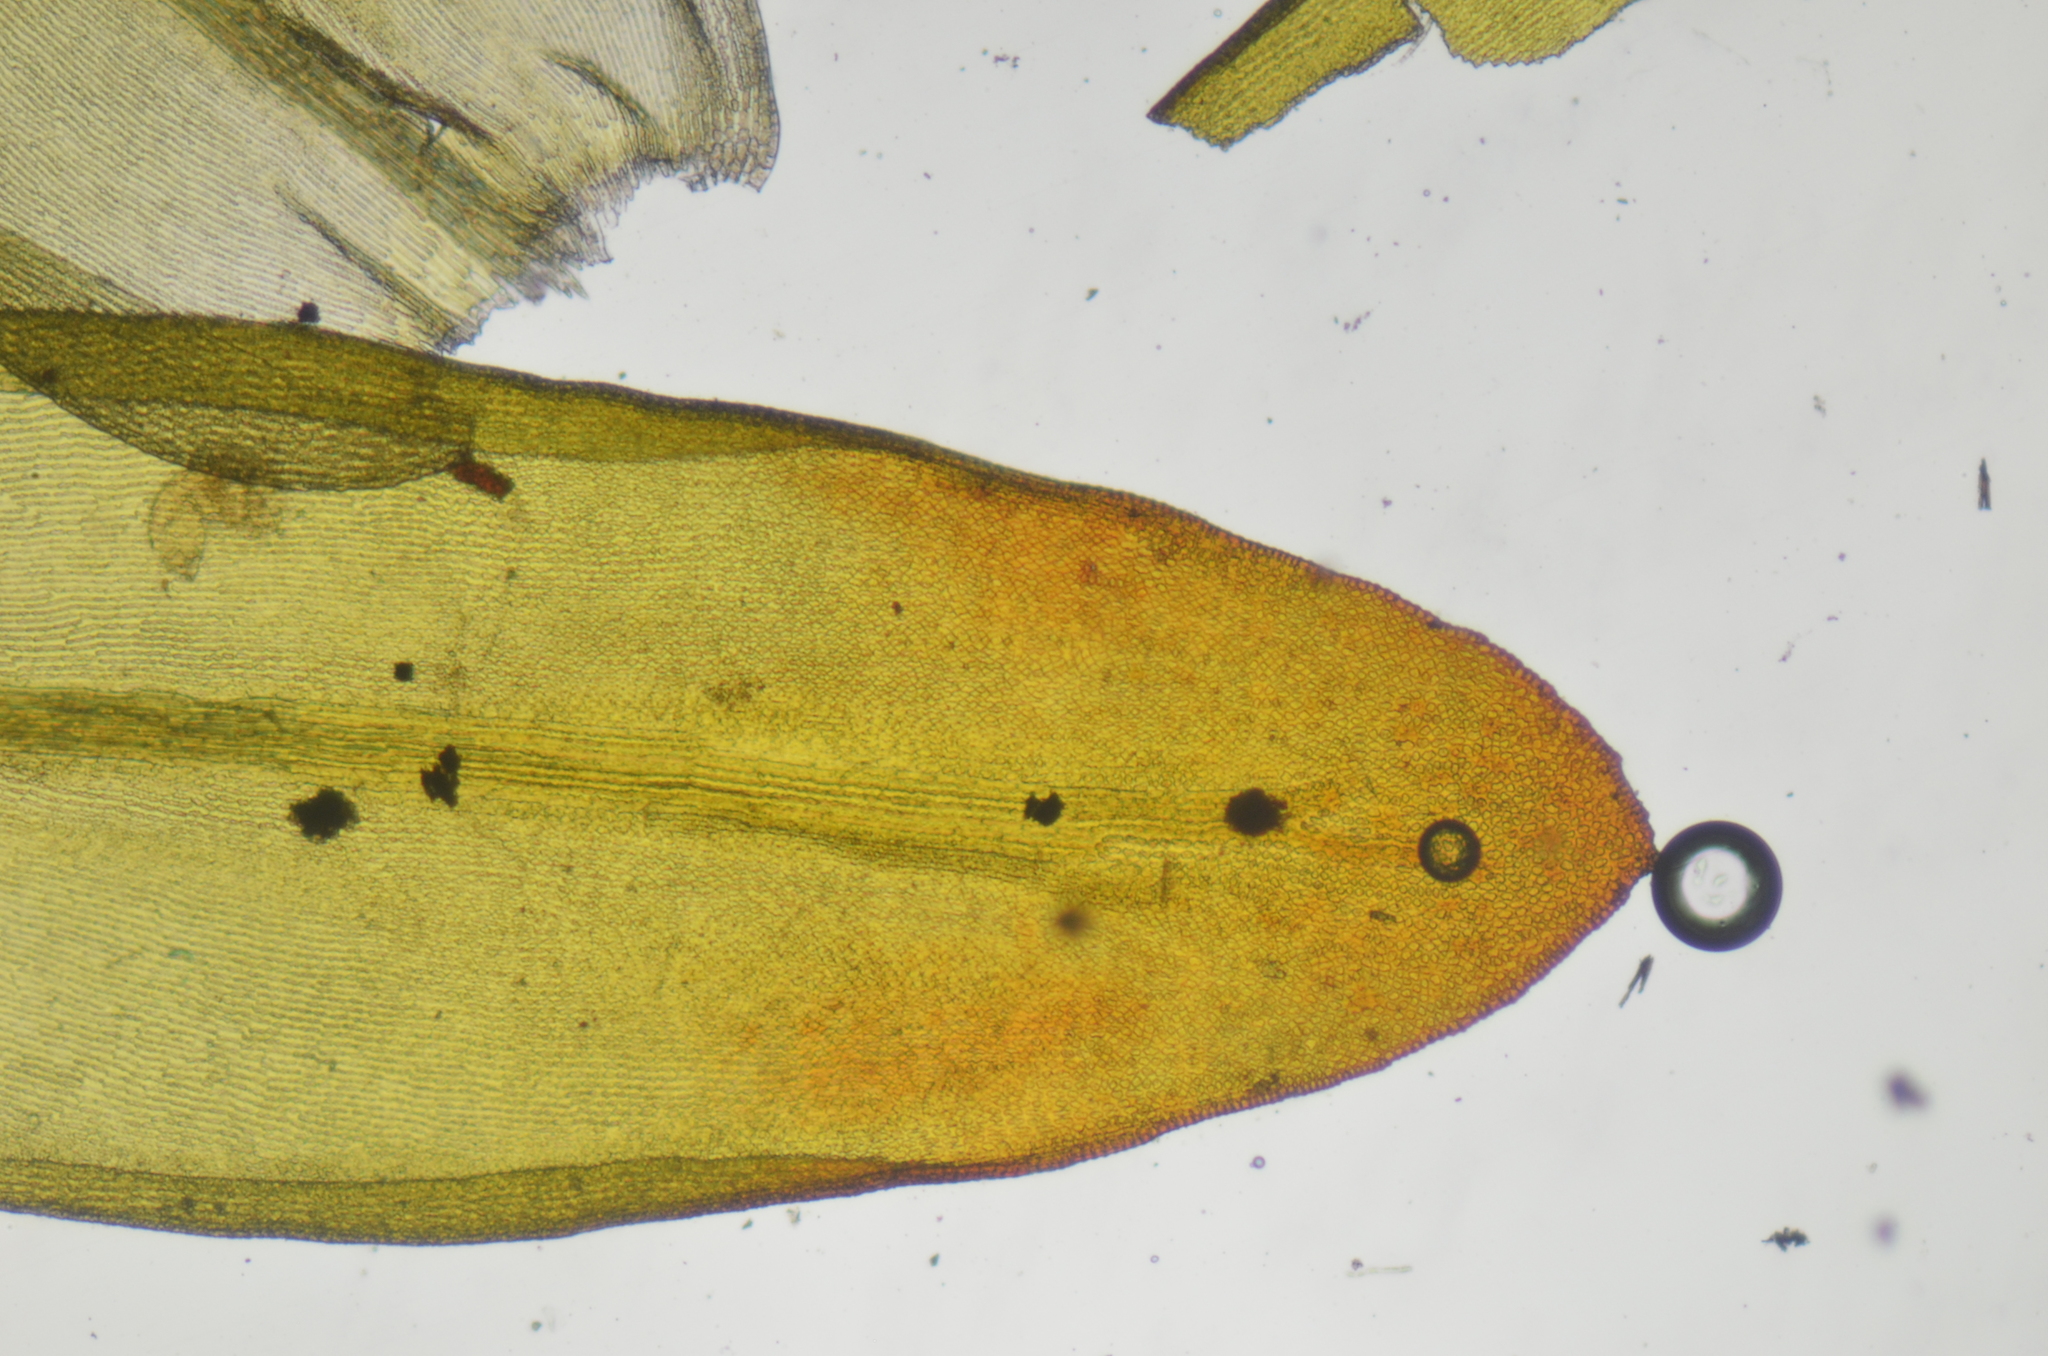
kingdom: Plantae
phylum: Bryophyta
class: Bryopsida
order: Grimmiales
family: Grimmiaceae
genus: Codriophorus
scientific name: Codriophorus mollis
